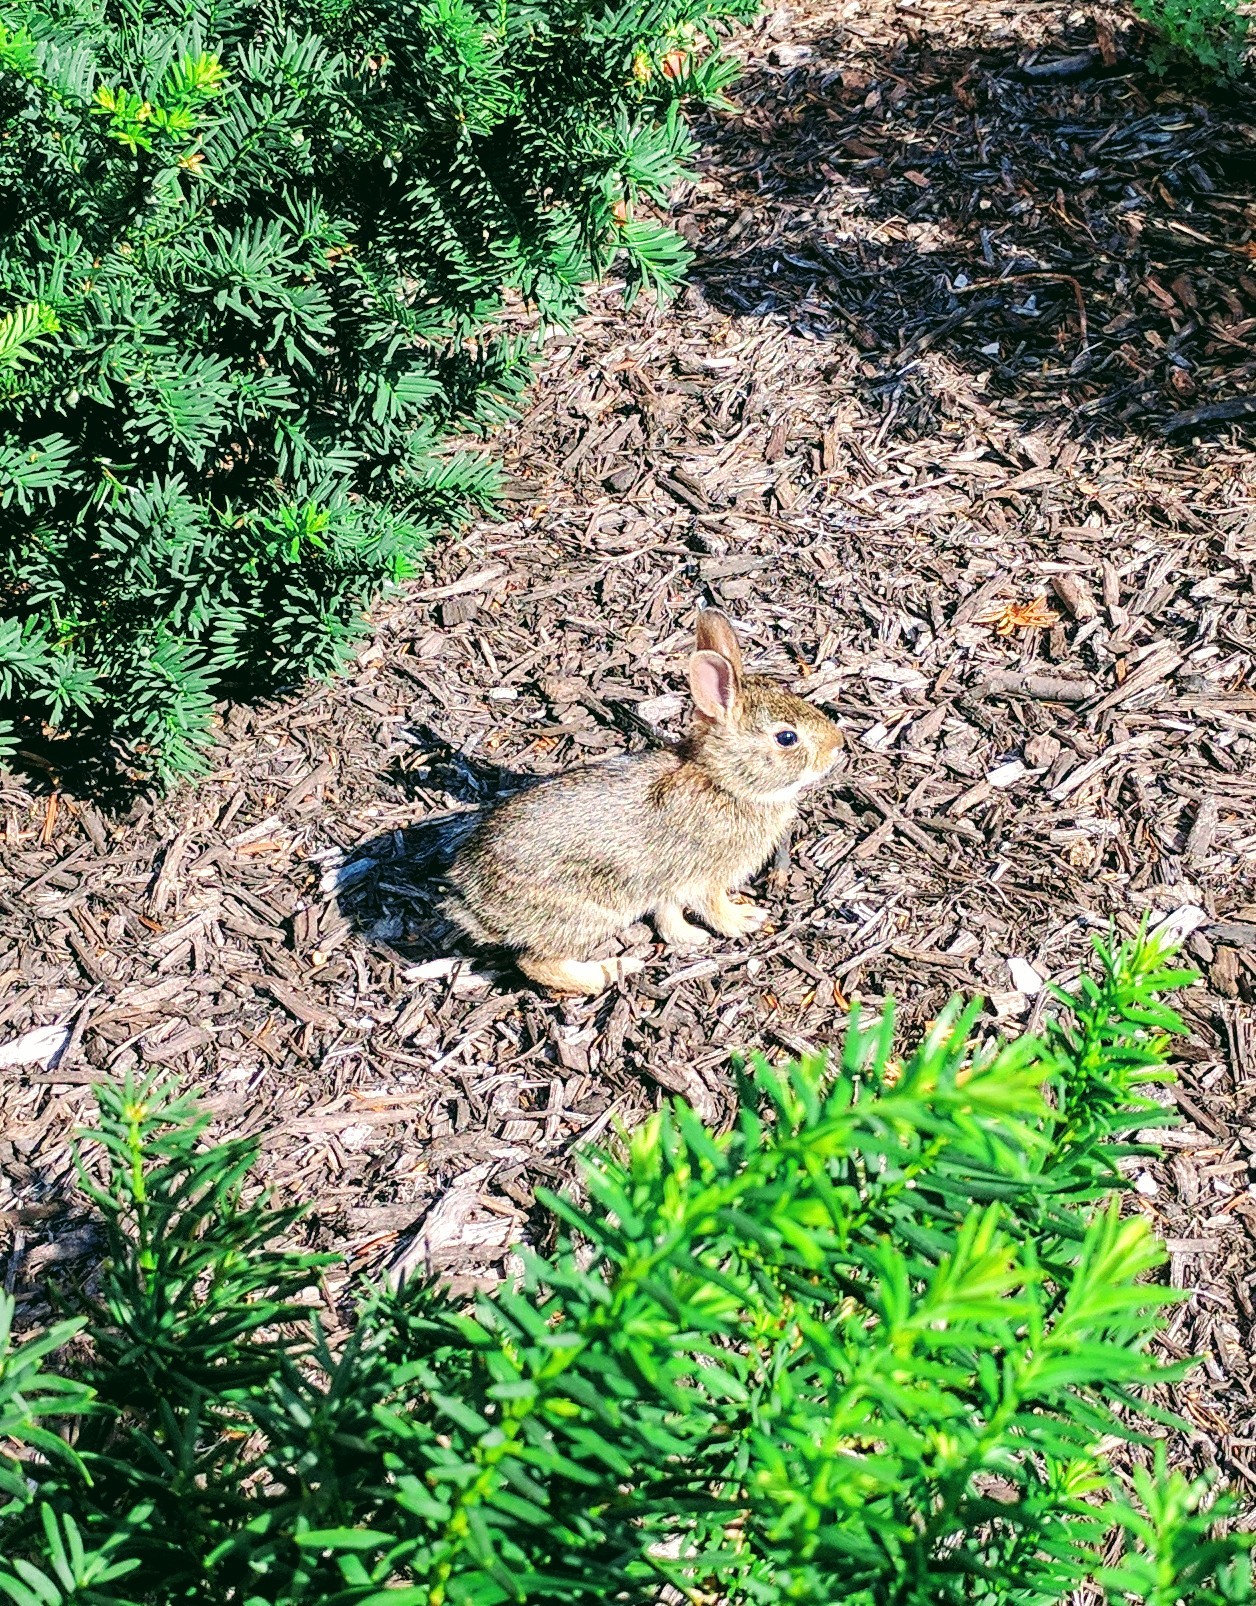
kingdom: Animalia
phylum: Chordata
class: Mammalia
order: Lagomorpha
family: Leporidae
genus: Sylvilagus
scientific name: Sylvilagus floridanus
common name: Eastern cottontail
